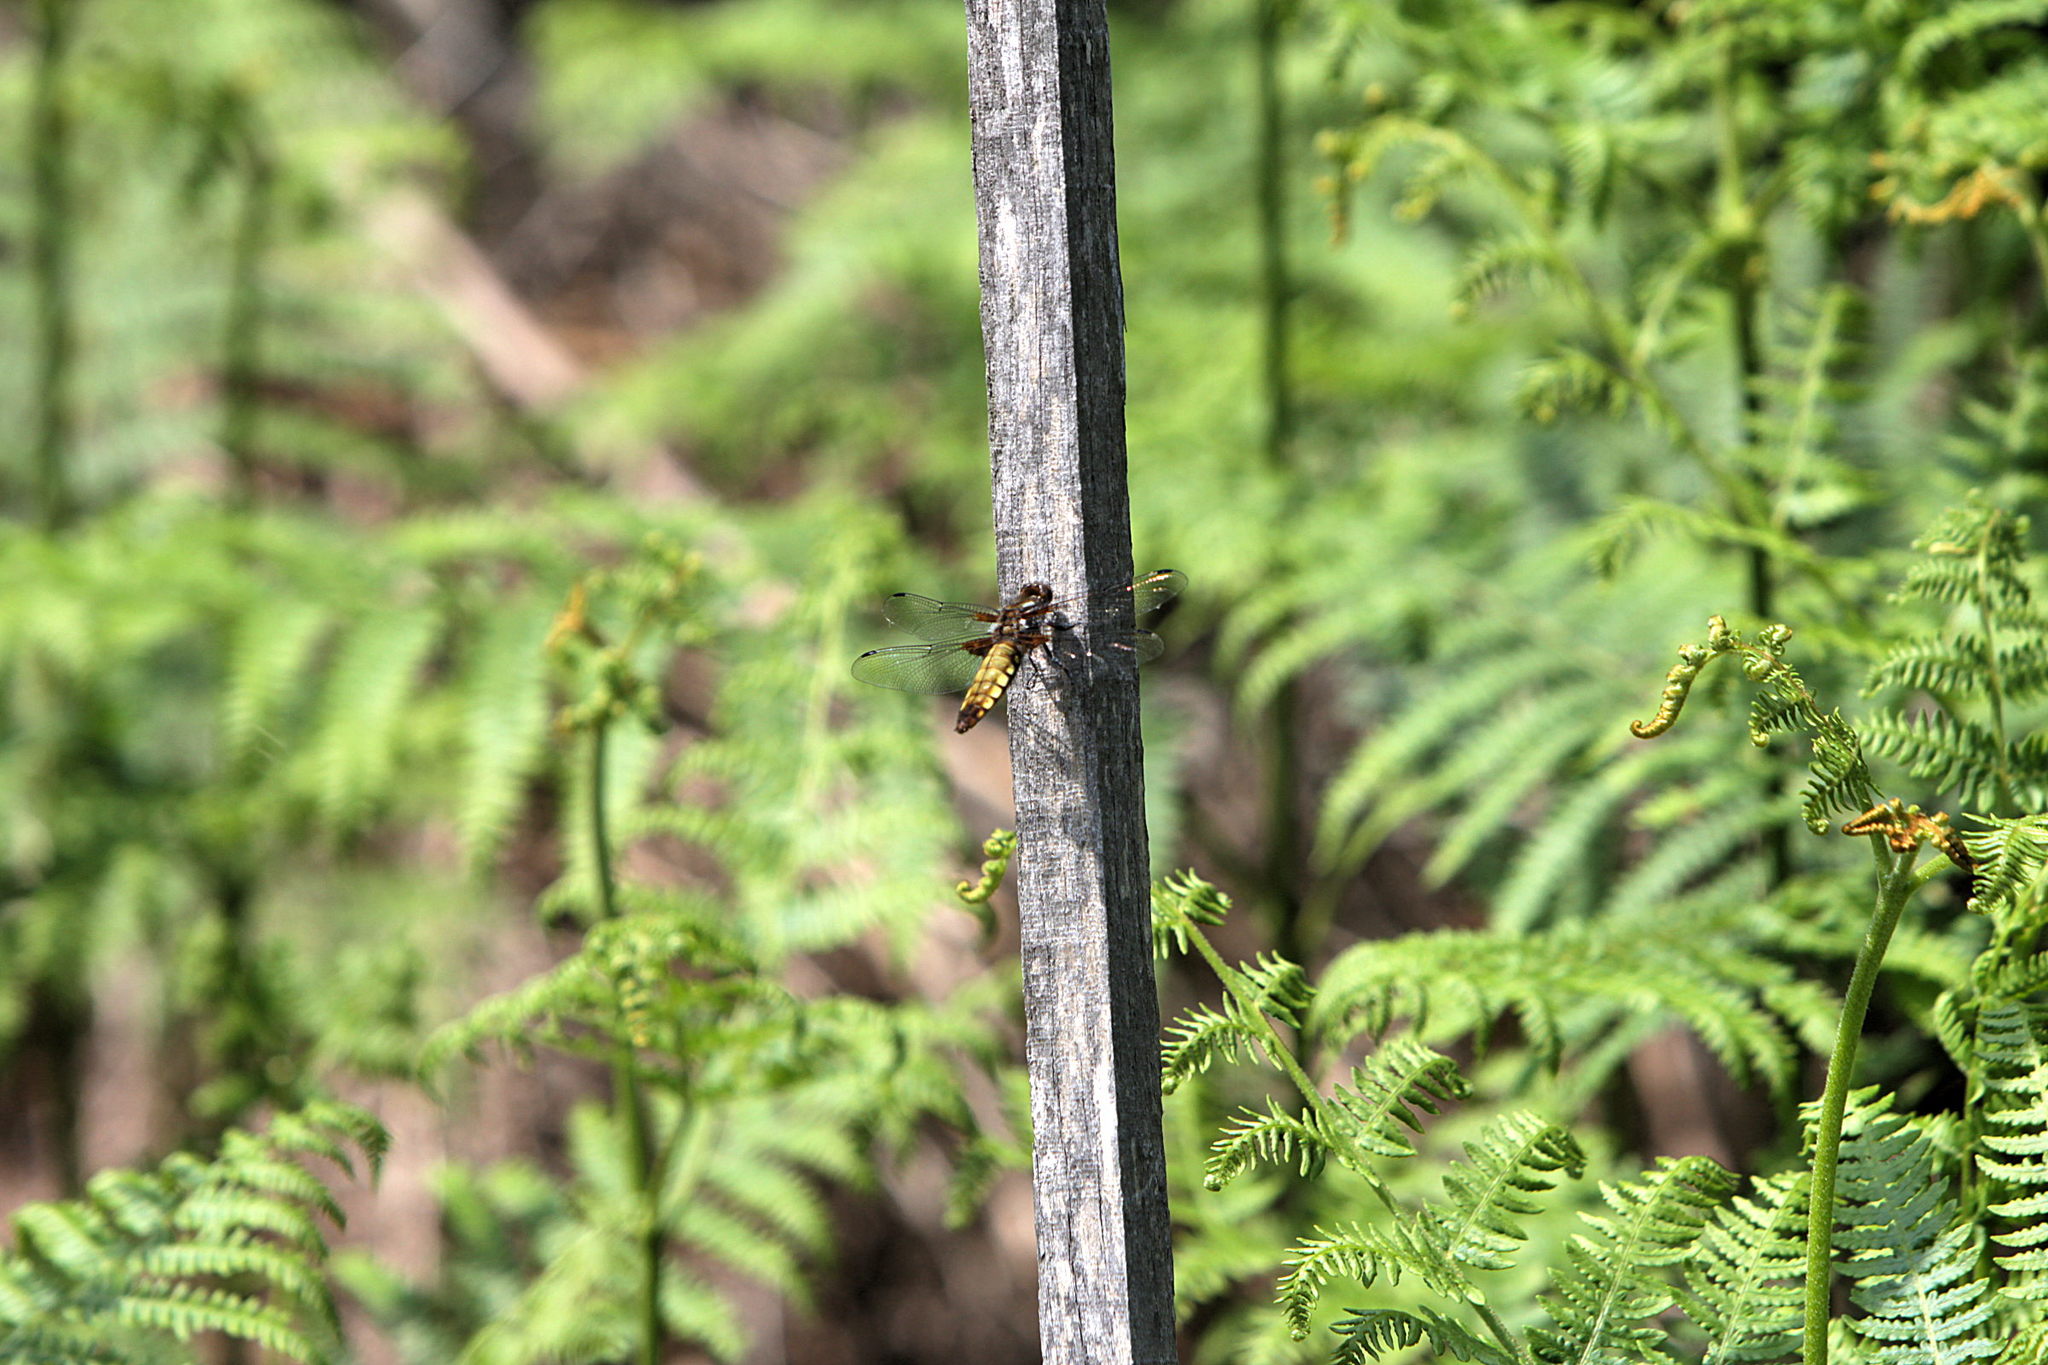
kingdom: Animalia
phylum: Arthropoda
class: Insecta
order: Odonata
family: Libellulidae
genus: Libellula
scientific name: Libellula depressa
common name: Broad-bodied chaser
